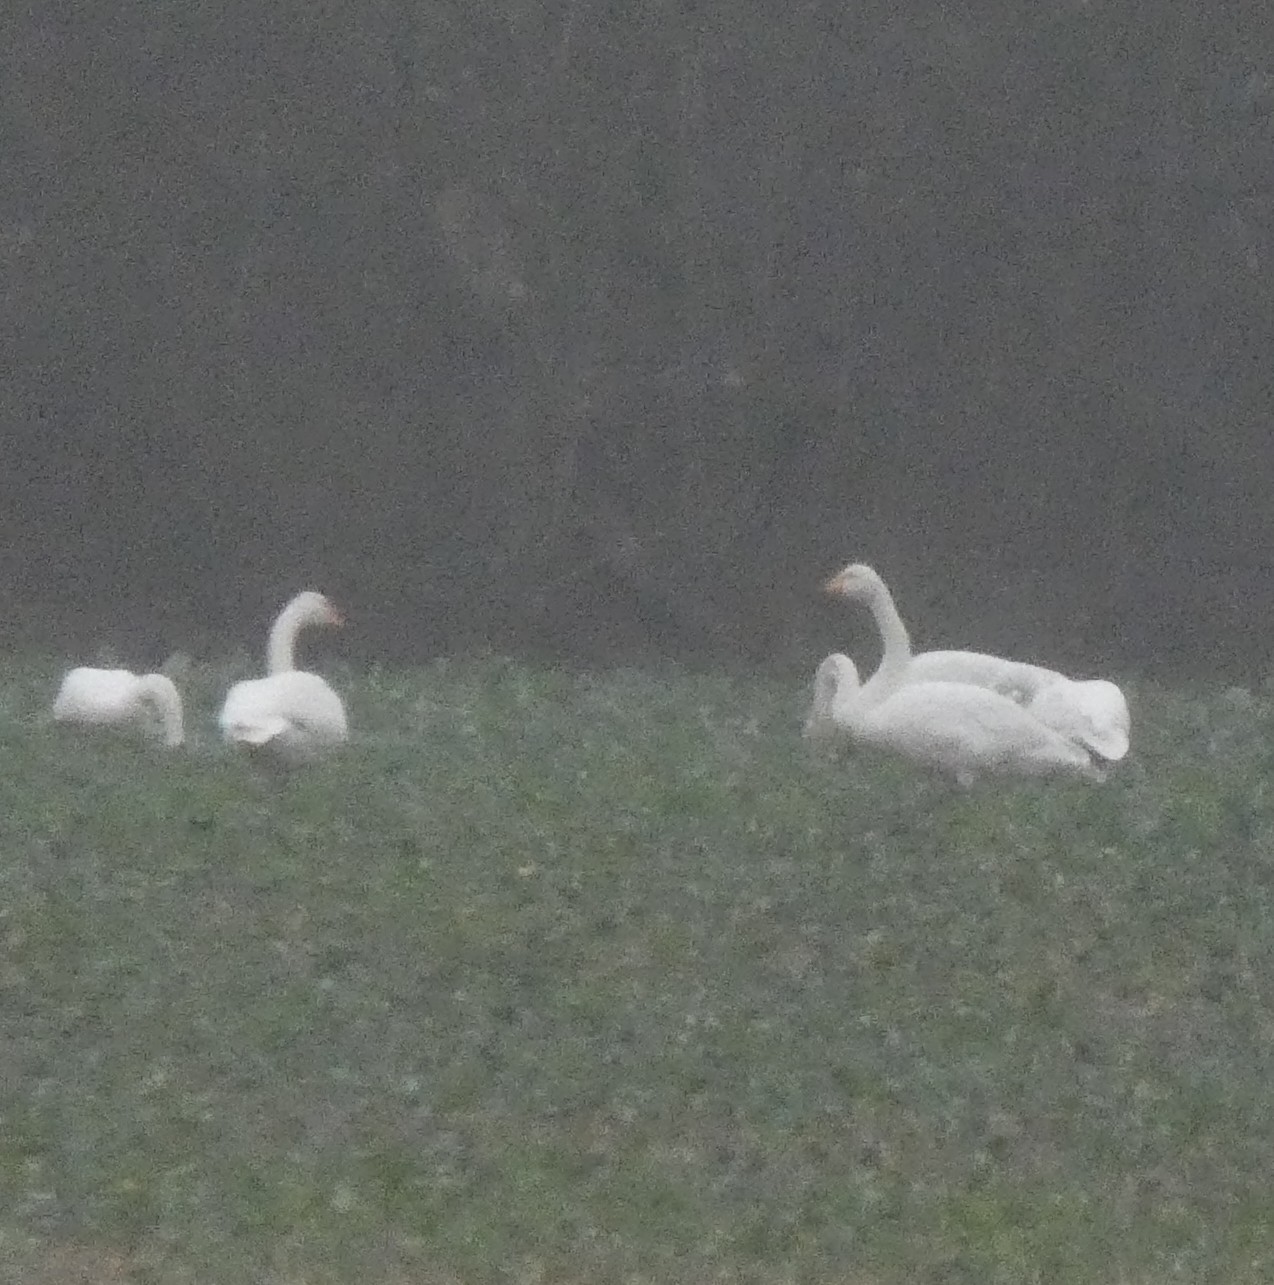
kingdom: Animalia
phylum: Chordata
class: Aves
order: Anseriformes
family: Anatidae
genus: Cygnus
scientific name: Cygnus cygnus
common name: Whooper swan
